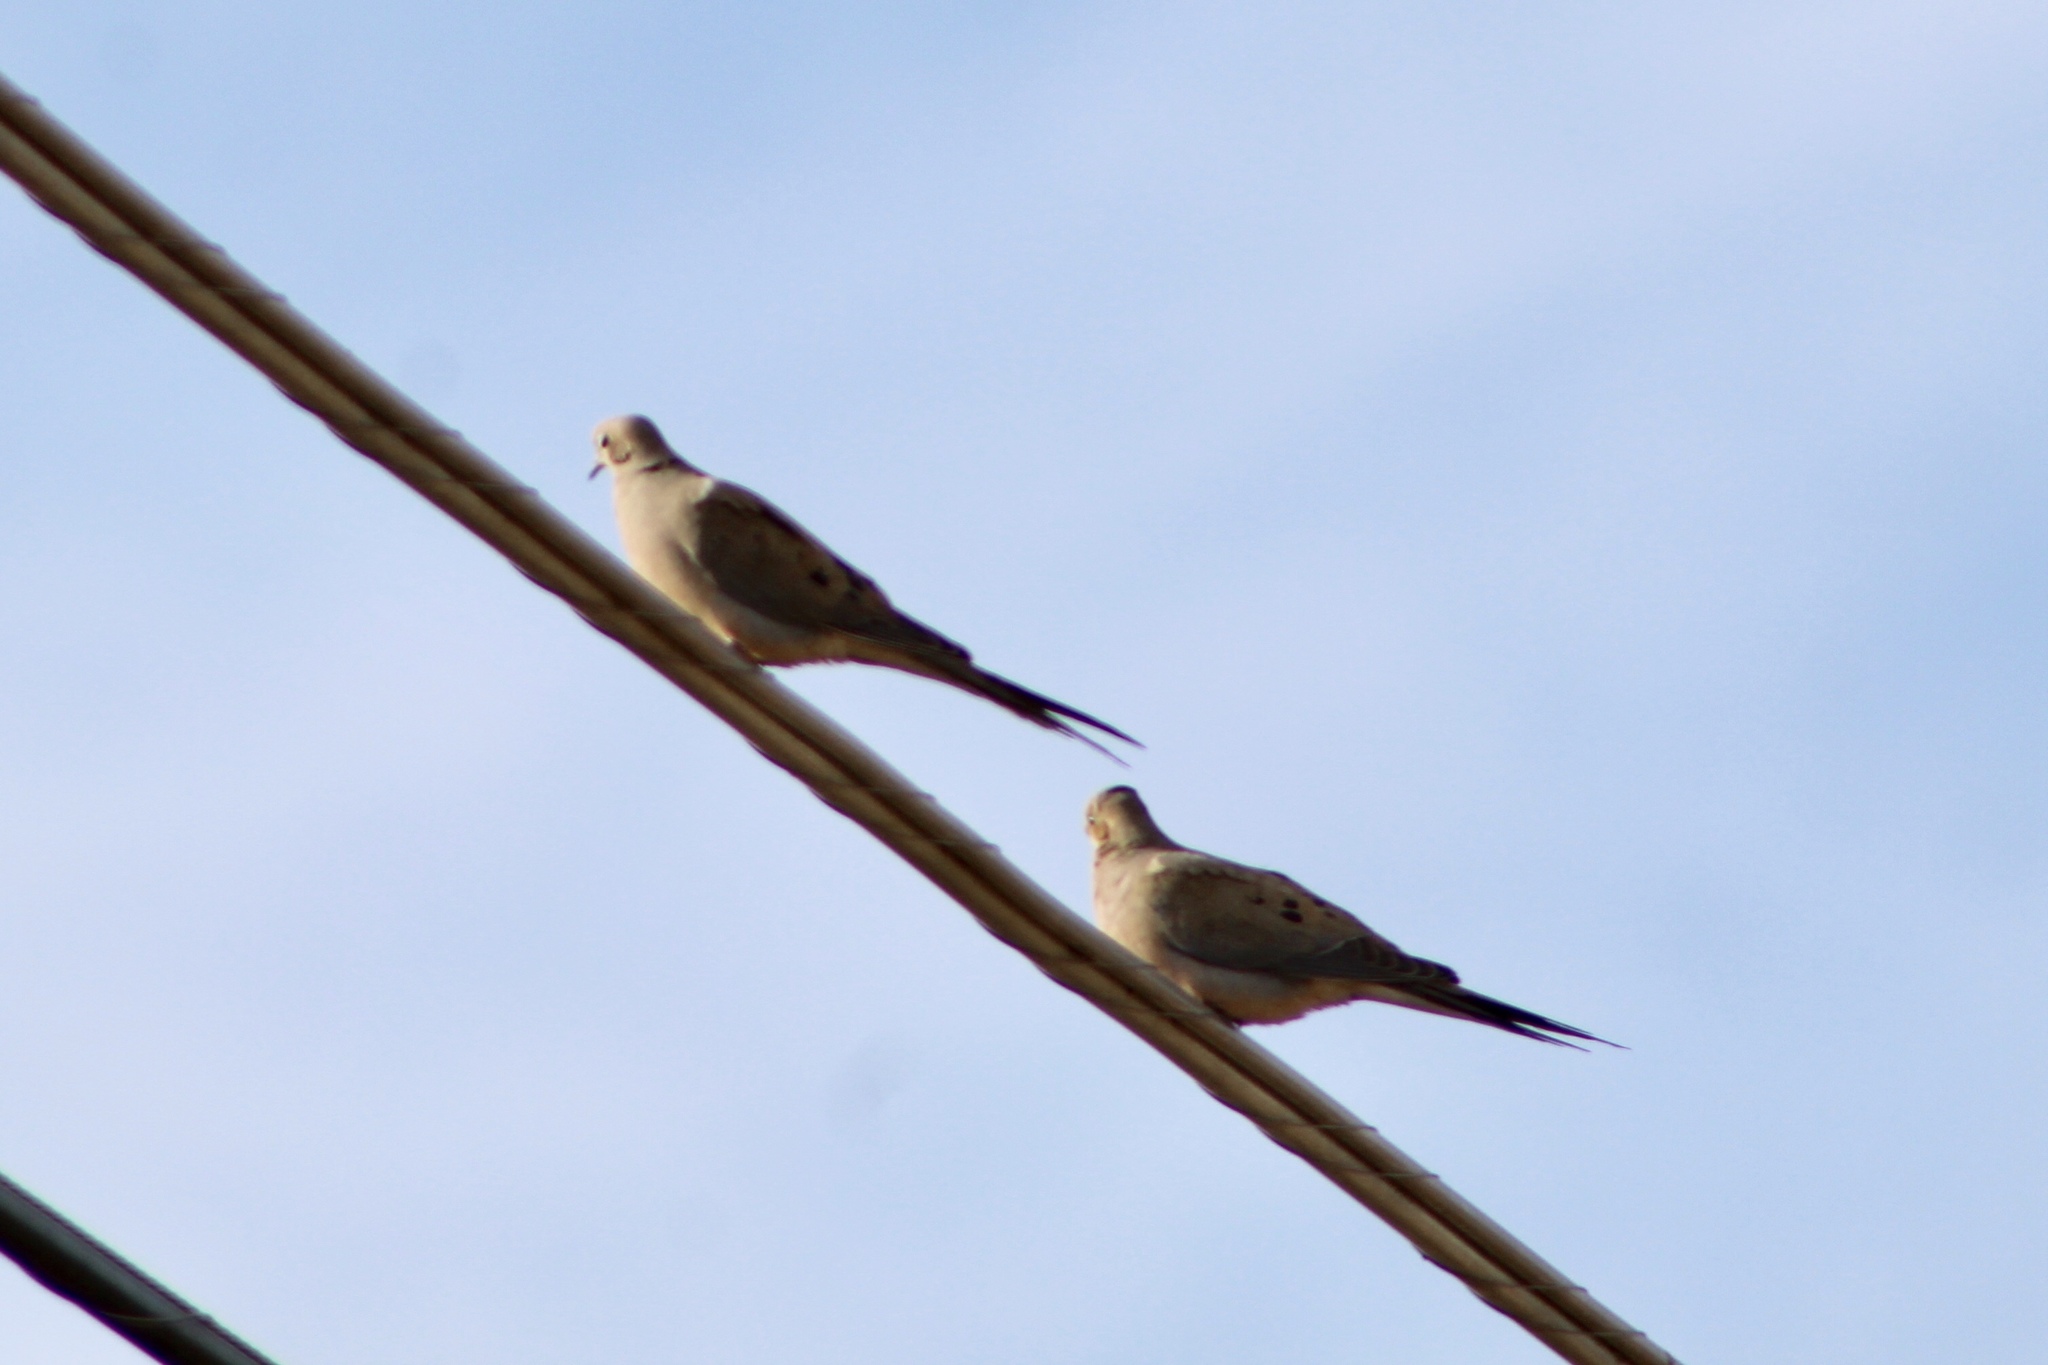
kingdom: Animalia
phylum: Chordata
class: Aves
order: Columbiformes
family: Columbidae
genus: Zenaida
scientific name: Zenaida macroura
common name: Mourning dove
